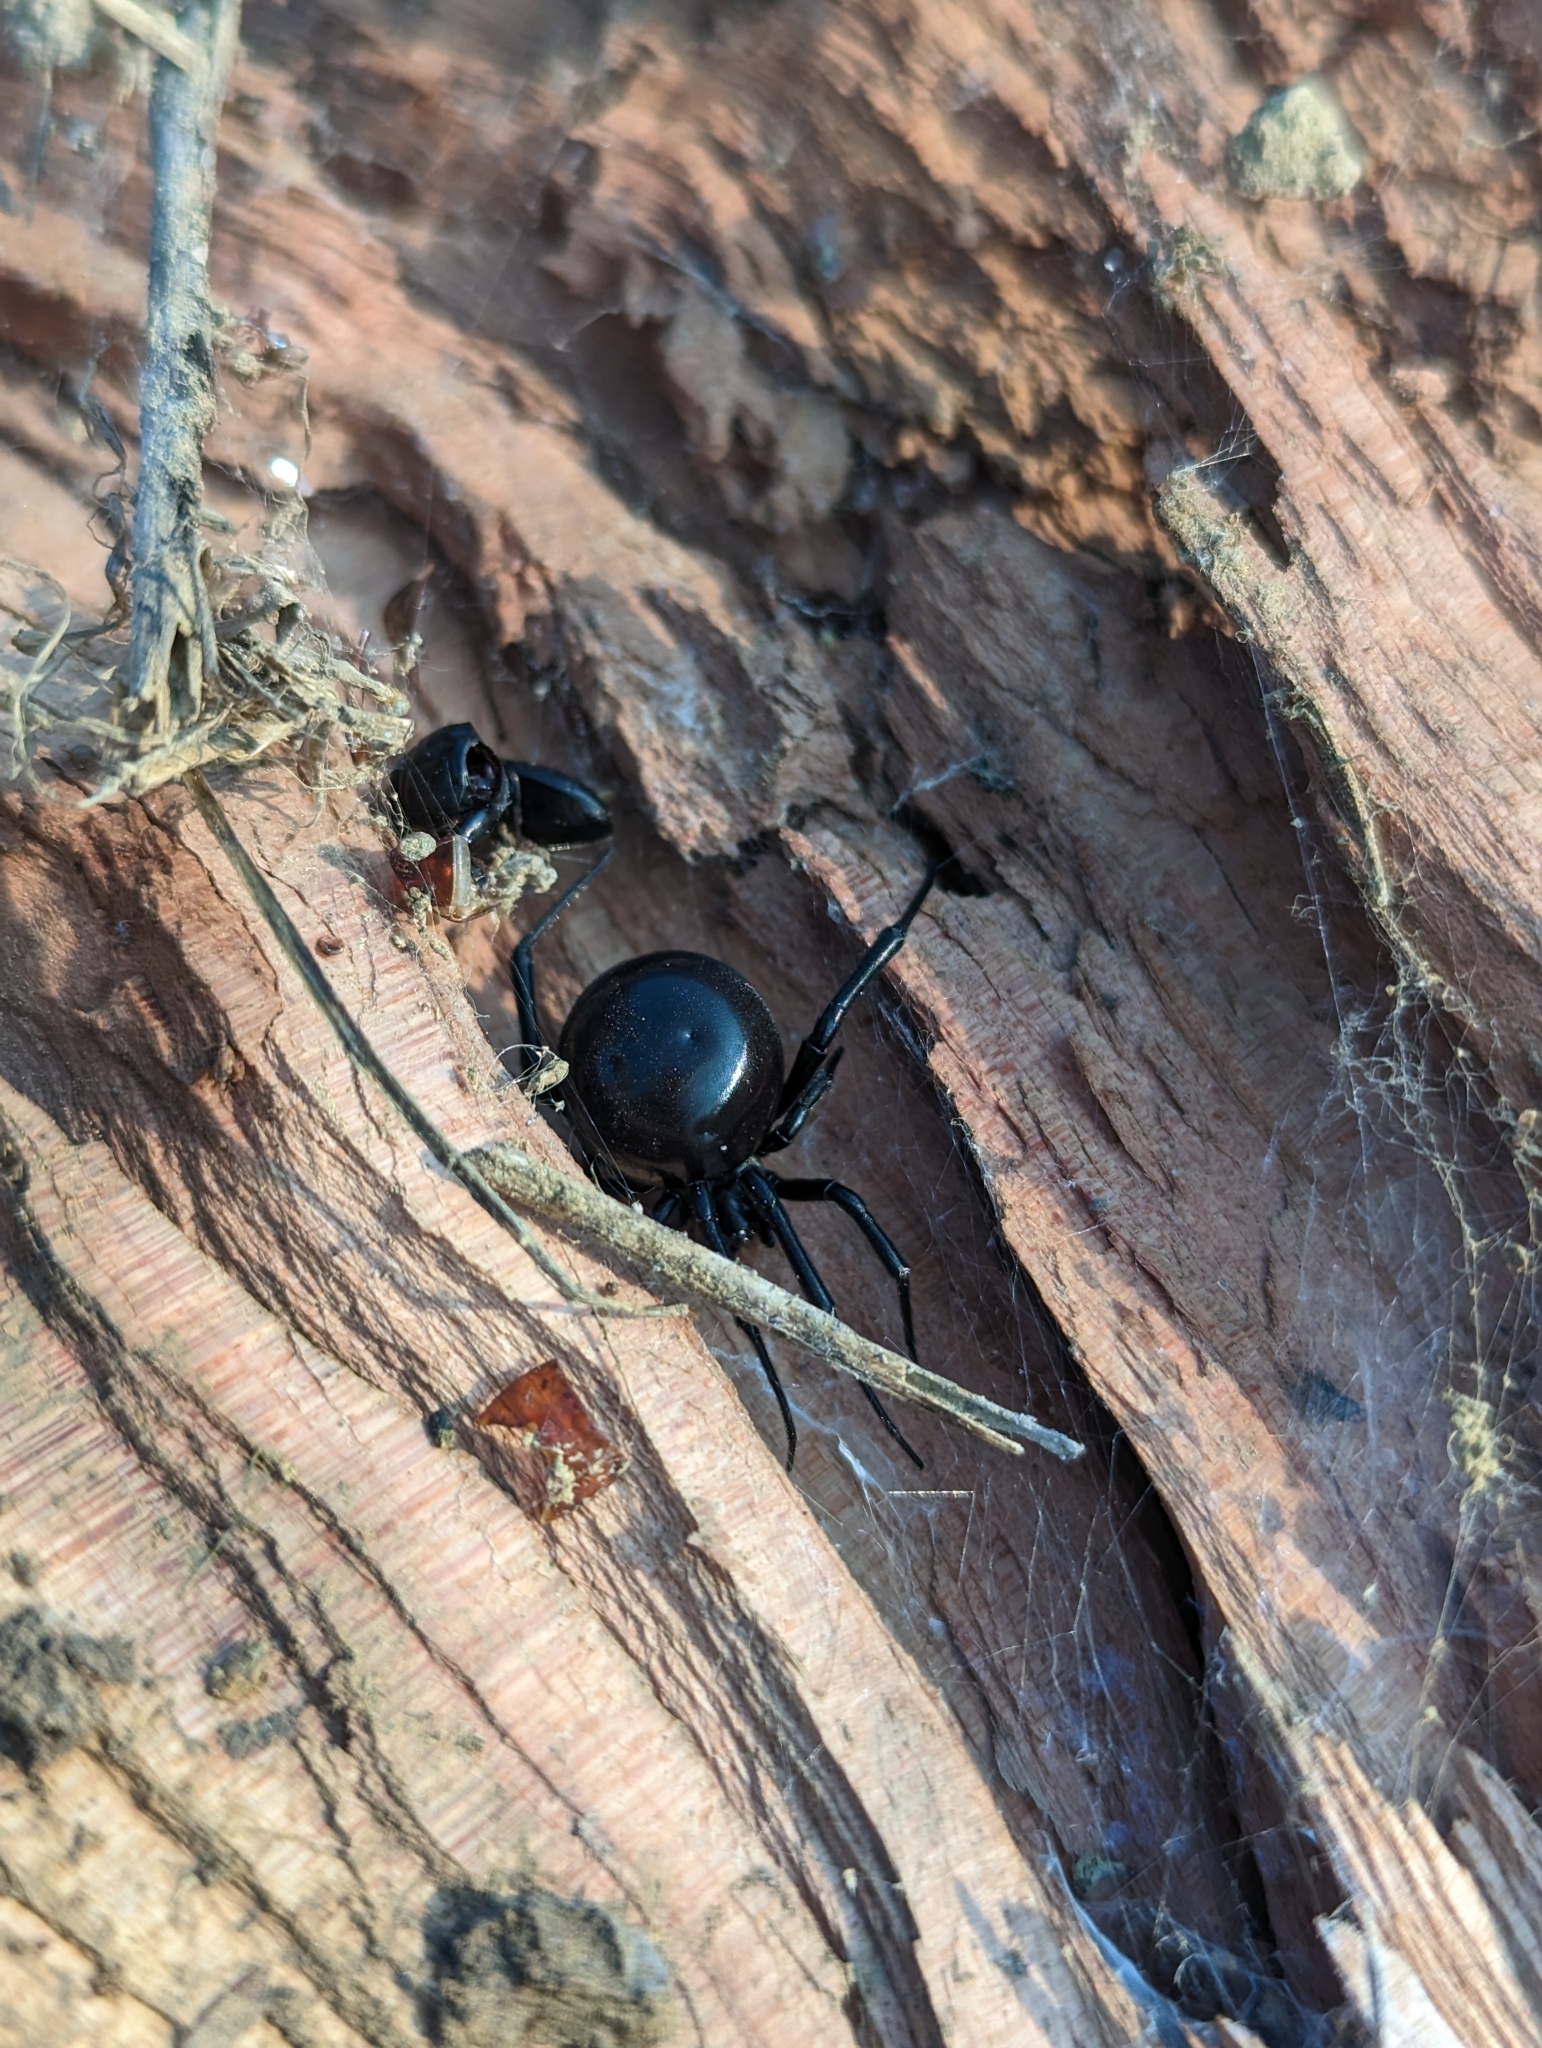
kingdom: Animalia
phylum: Arthropoda
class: Arachnida
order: Araneae
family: Theridiidae
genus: Latrodectus
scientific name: Latrodectus mactans
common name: Cobweb spiders
